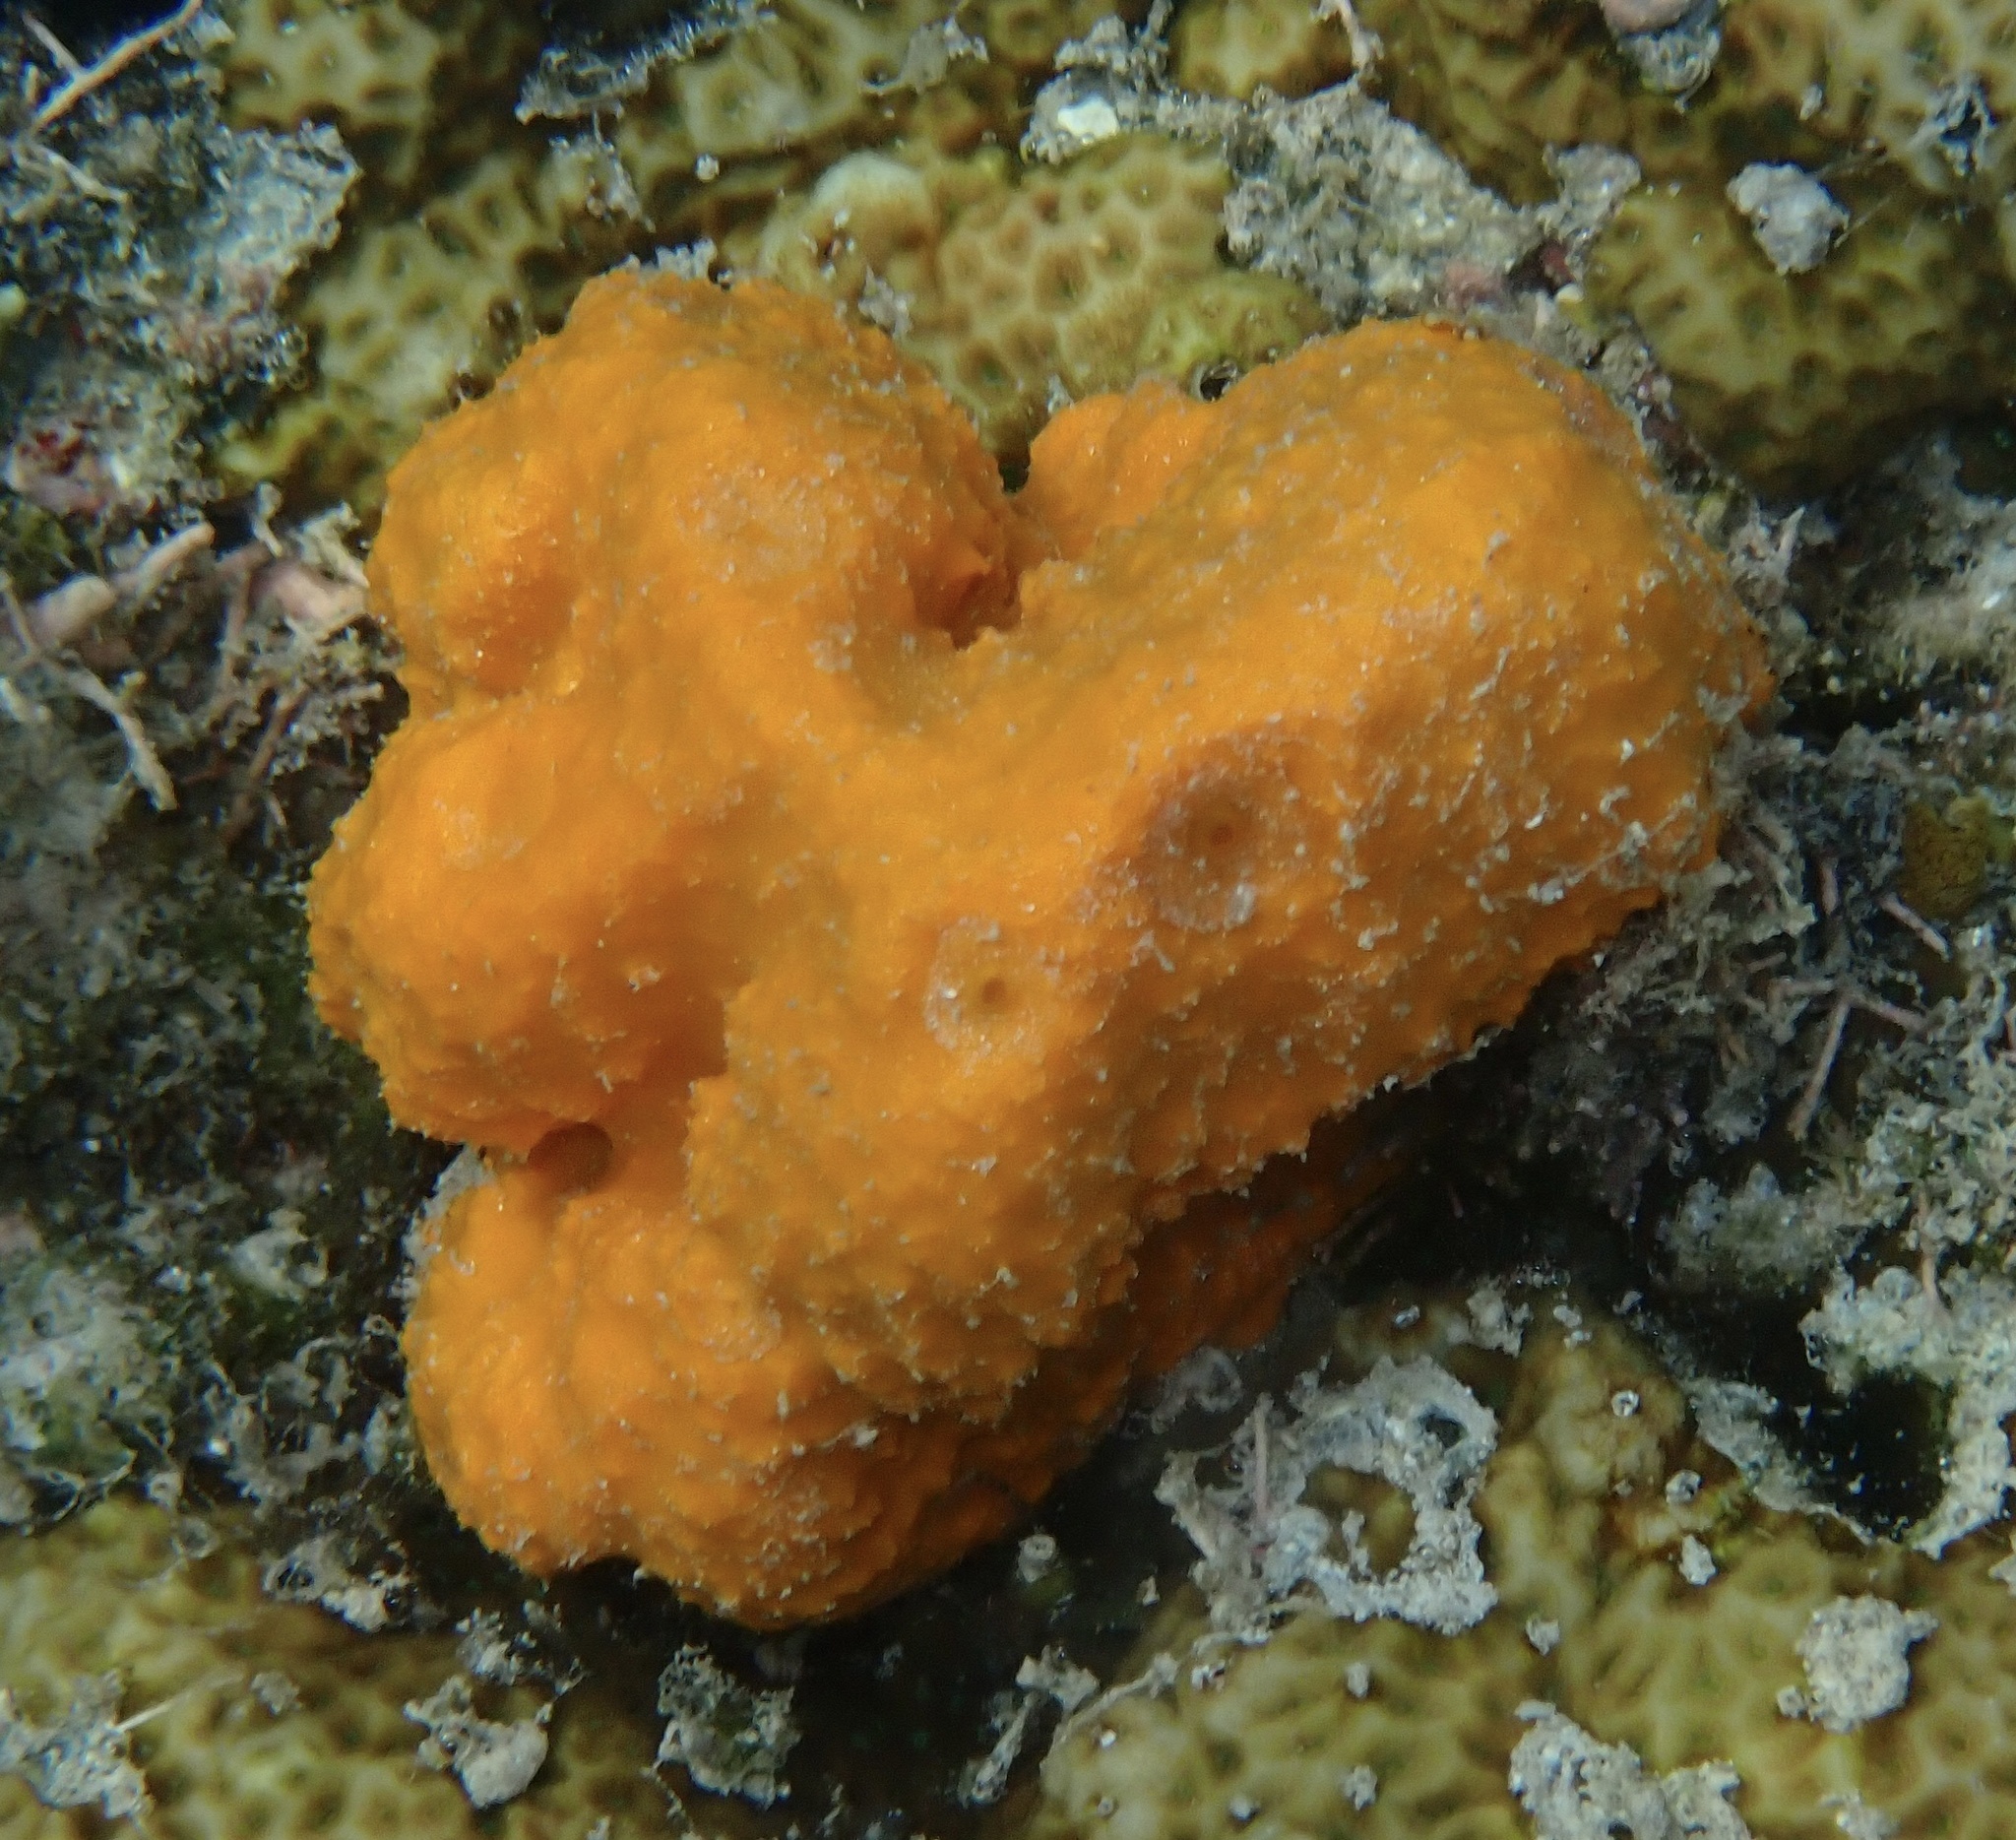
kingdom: Animalia
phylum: Porifera
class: Demospongiae
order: Scopalinida
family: Scopalinidae
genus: Stylissa
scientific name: Stylissa massa
